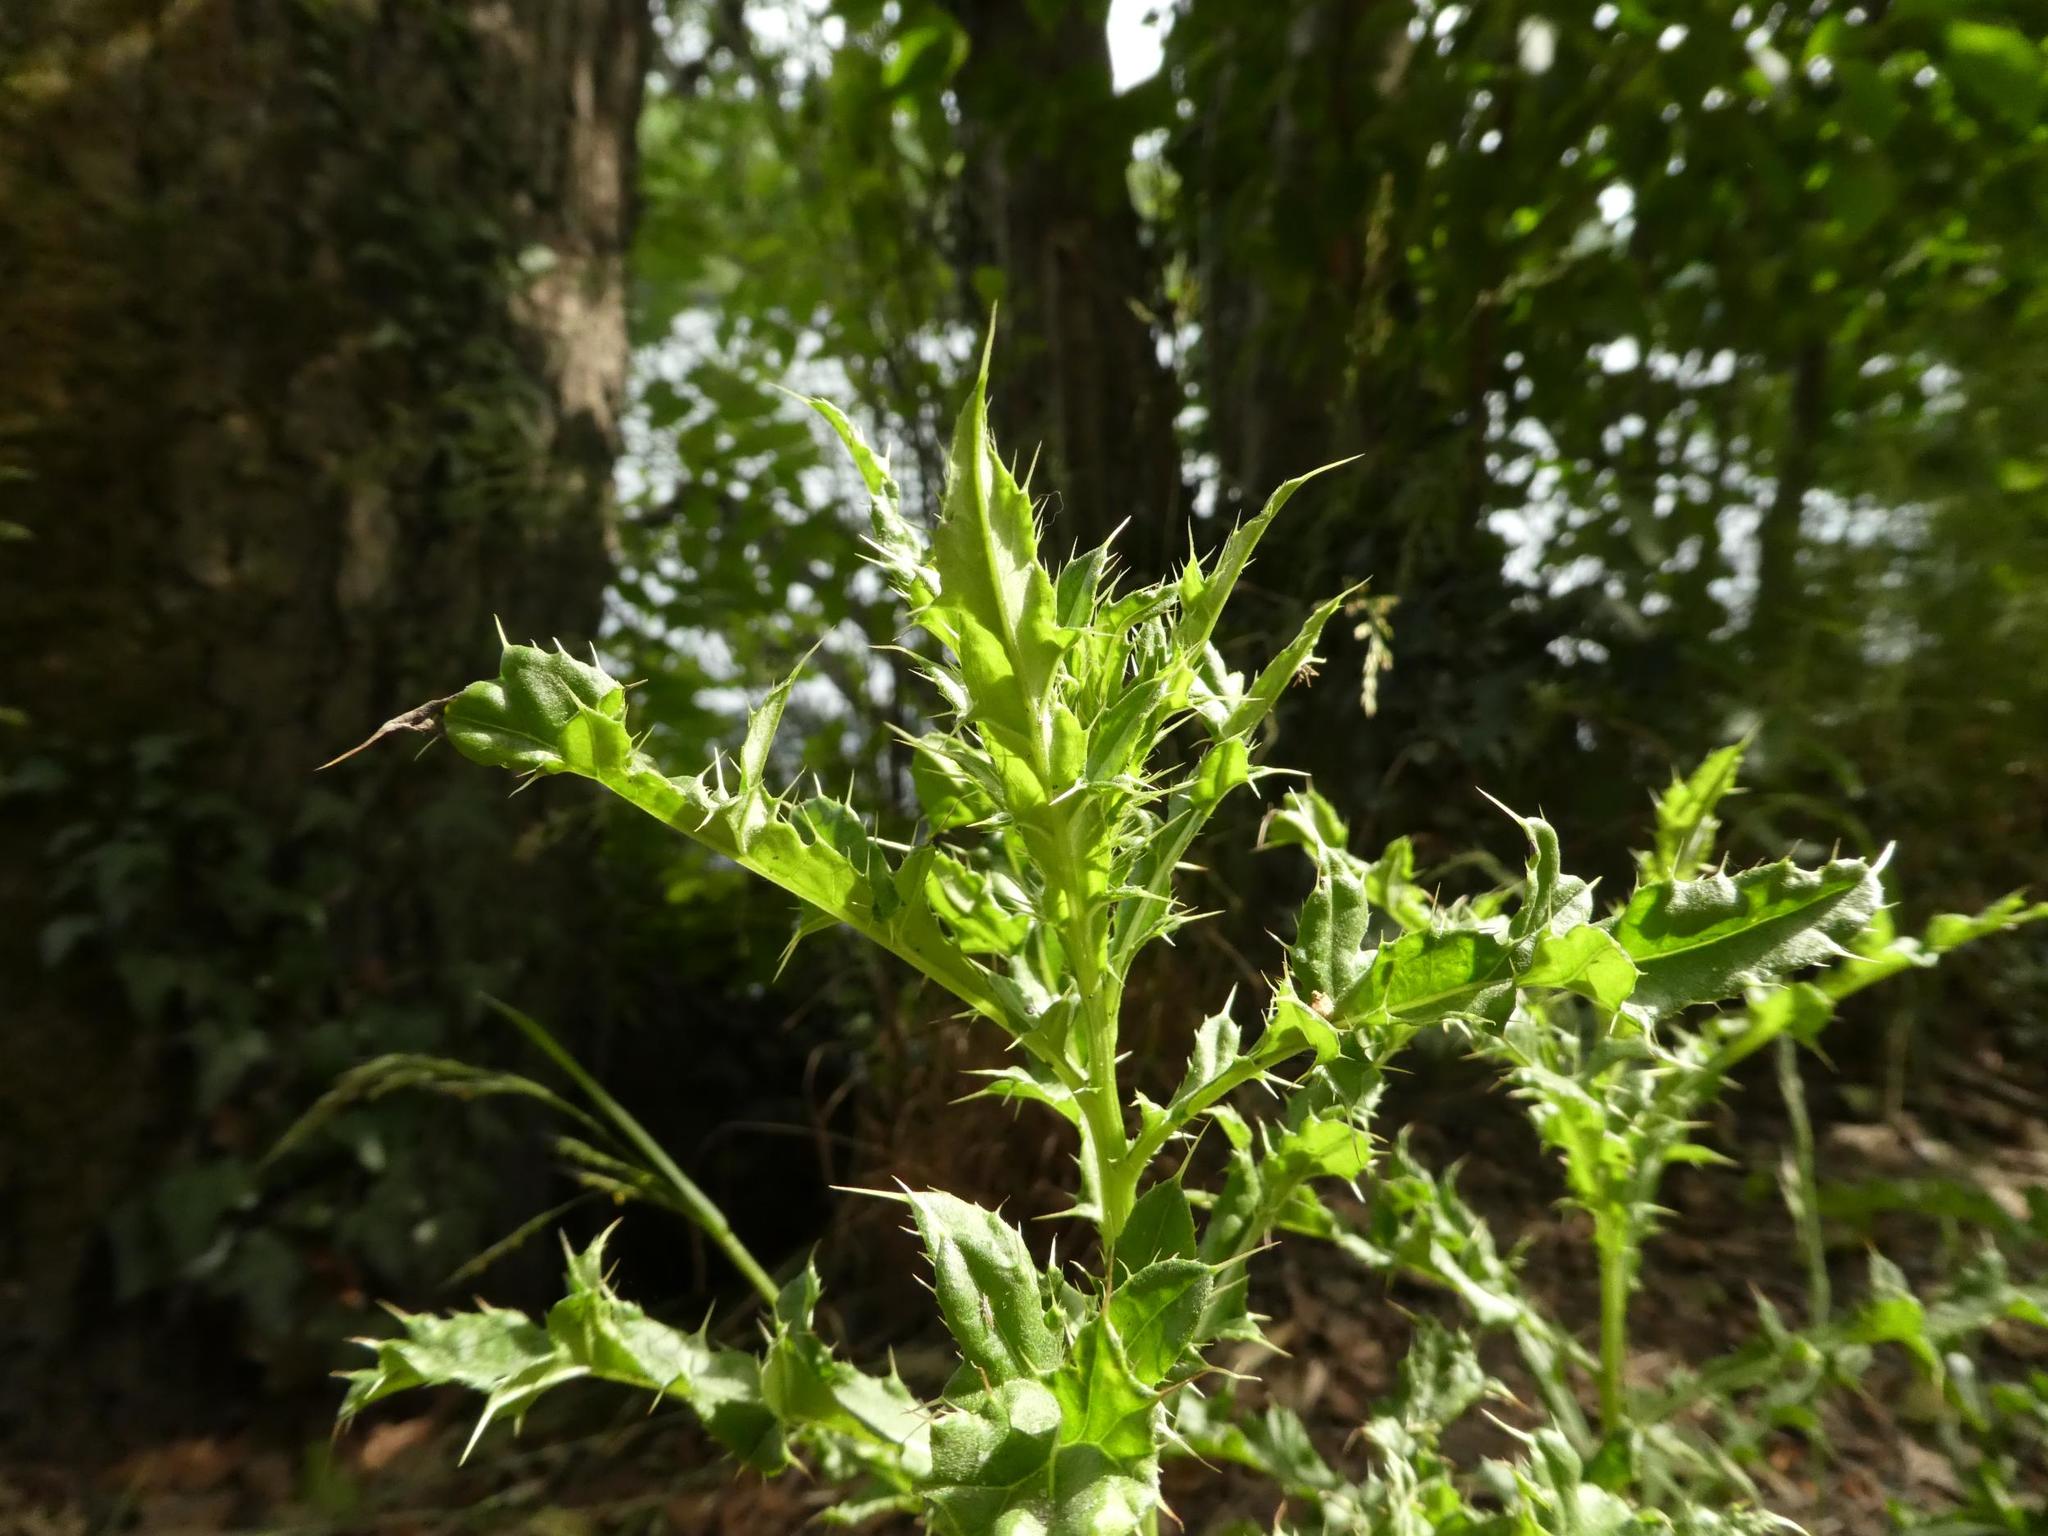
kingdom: Plantae
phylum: Tracheophyta
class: Magnoliopsida
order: Asterales
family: Asteraceae
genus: Cirsium
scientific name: Cirsium arvense
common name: Creeping thistle
